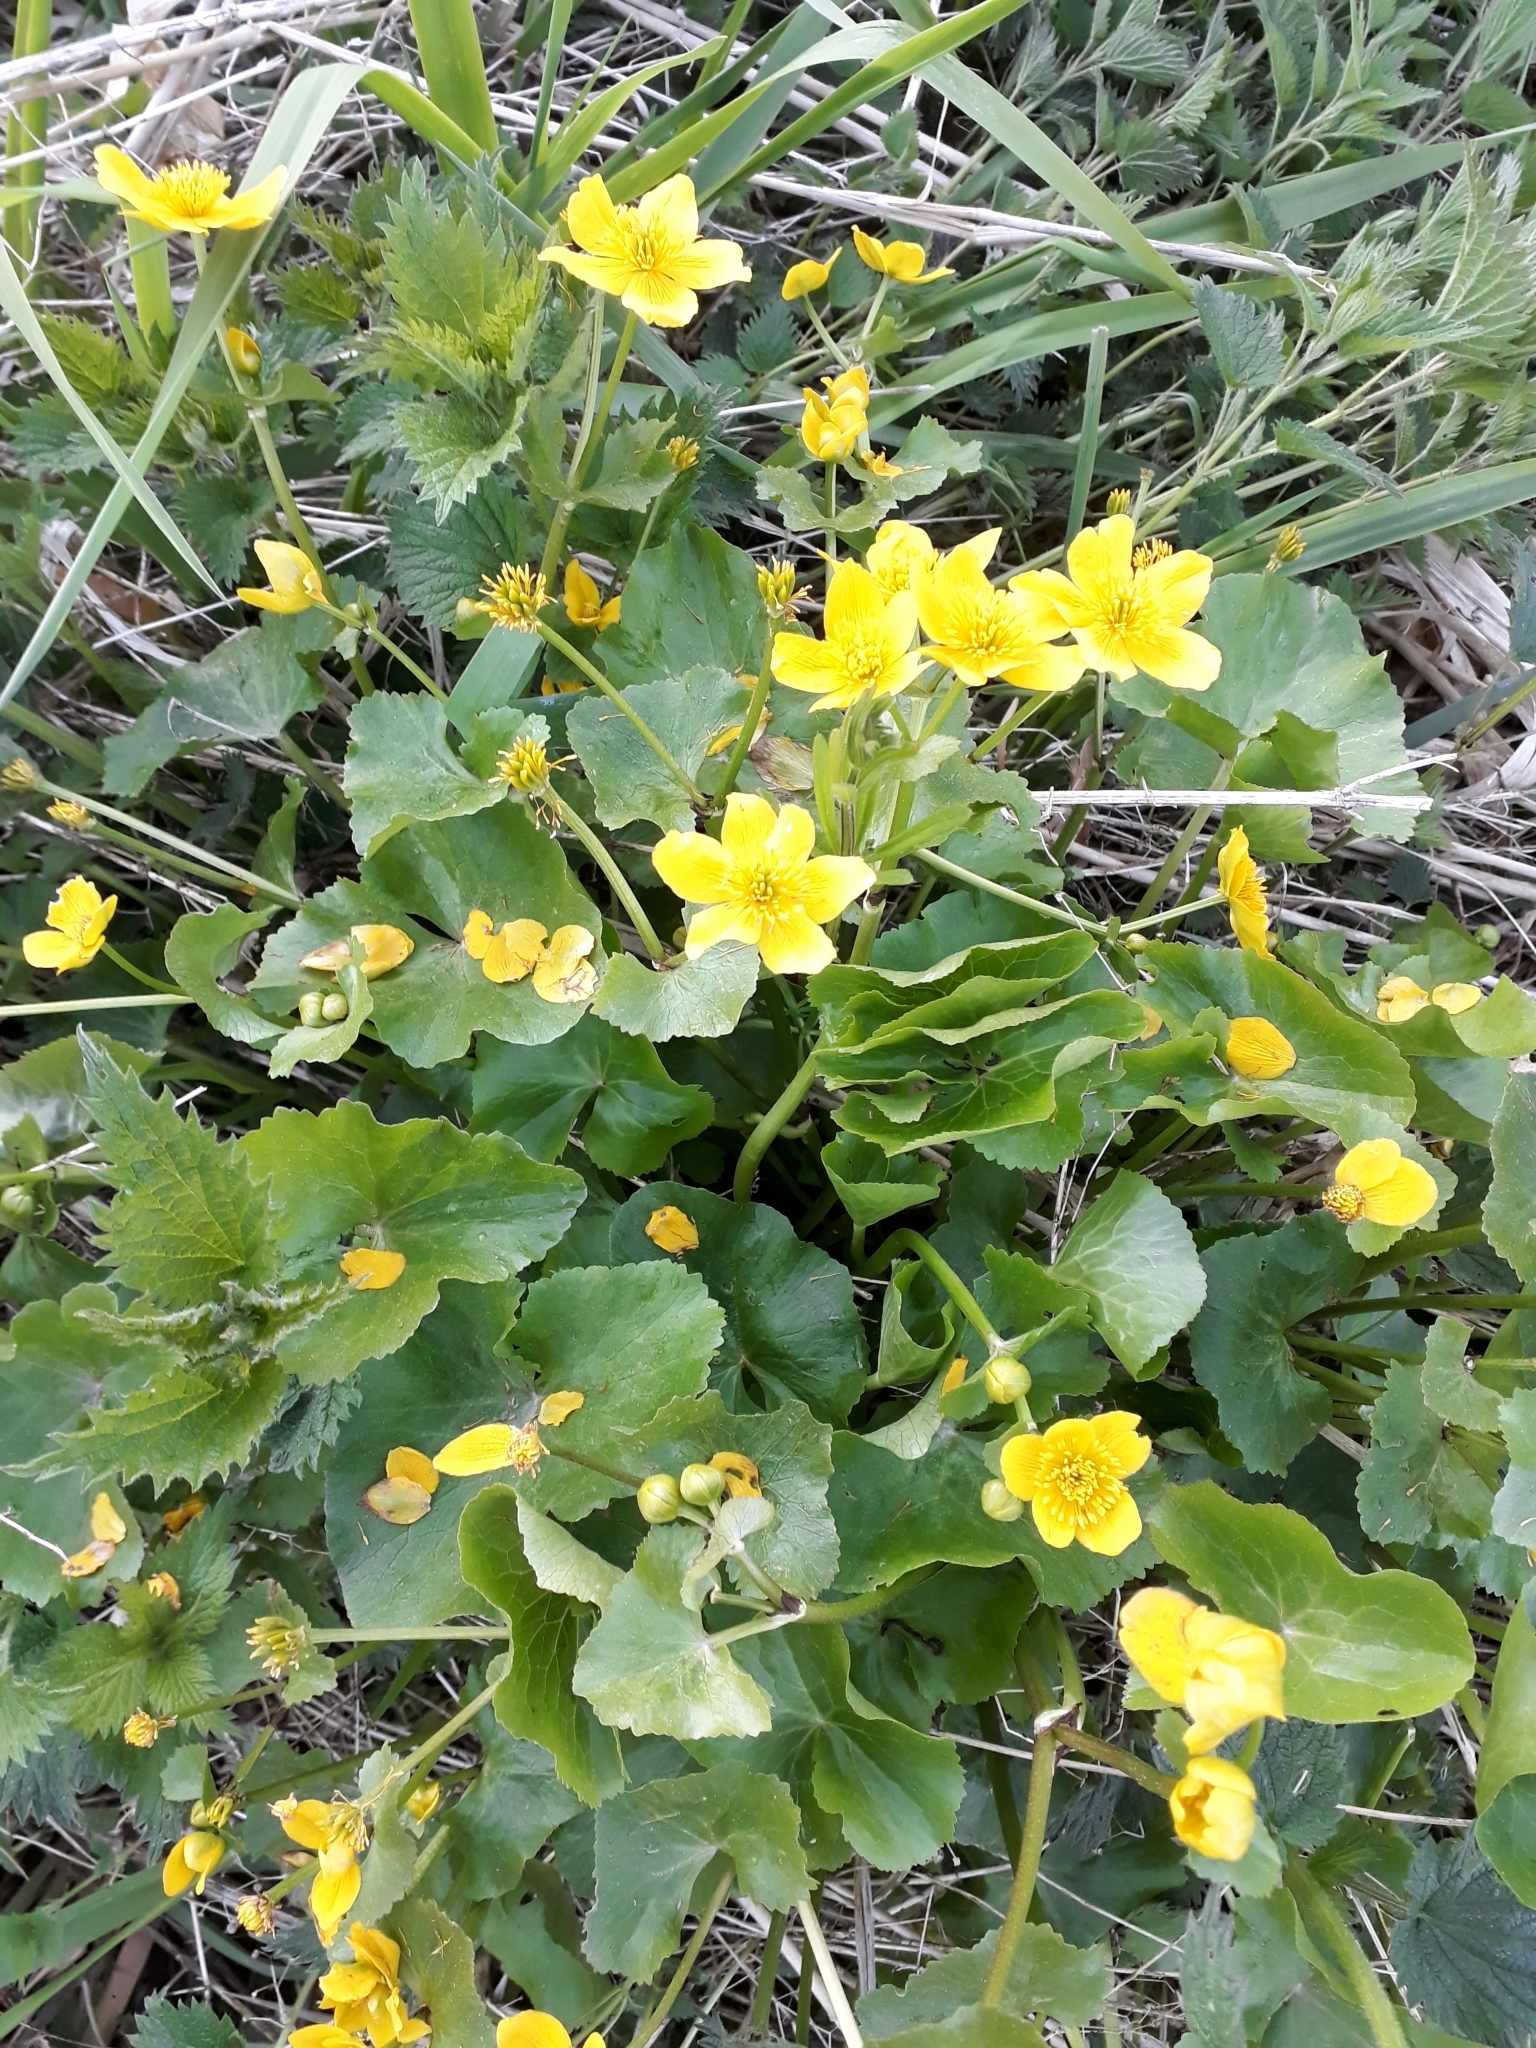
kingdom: Plantae
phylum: Tracheophyta
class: Magnoliopsida
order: Ranunculales
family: Ranunculaceae
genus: Caltha
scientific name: Caltha palustris
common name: Marsh marigold
